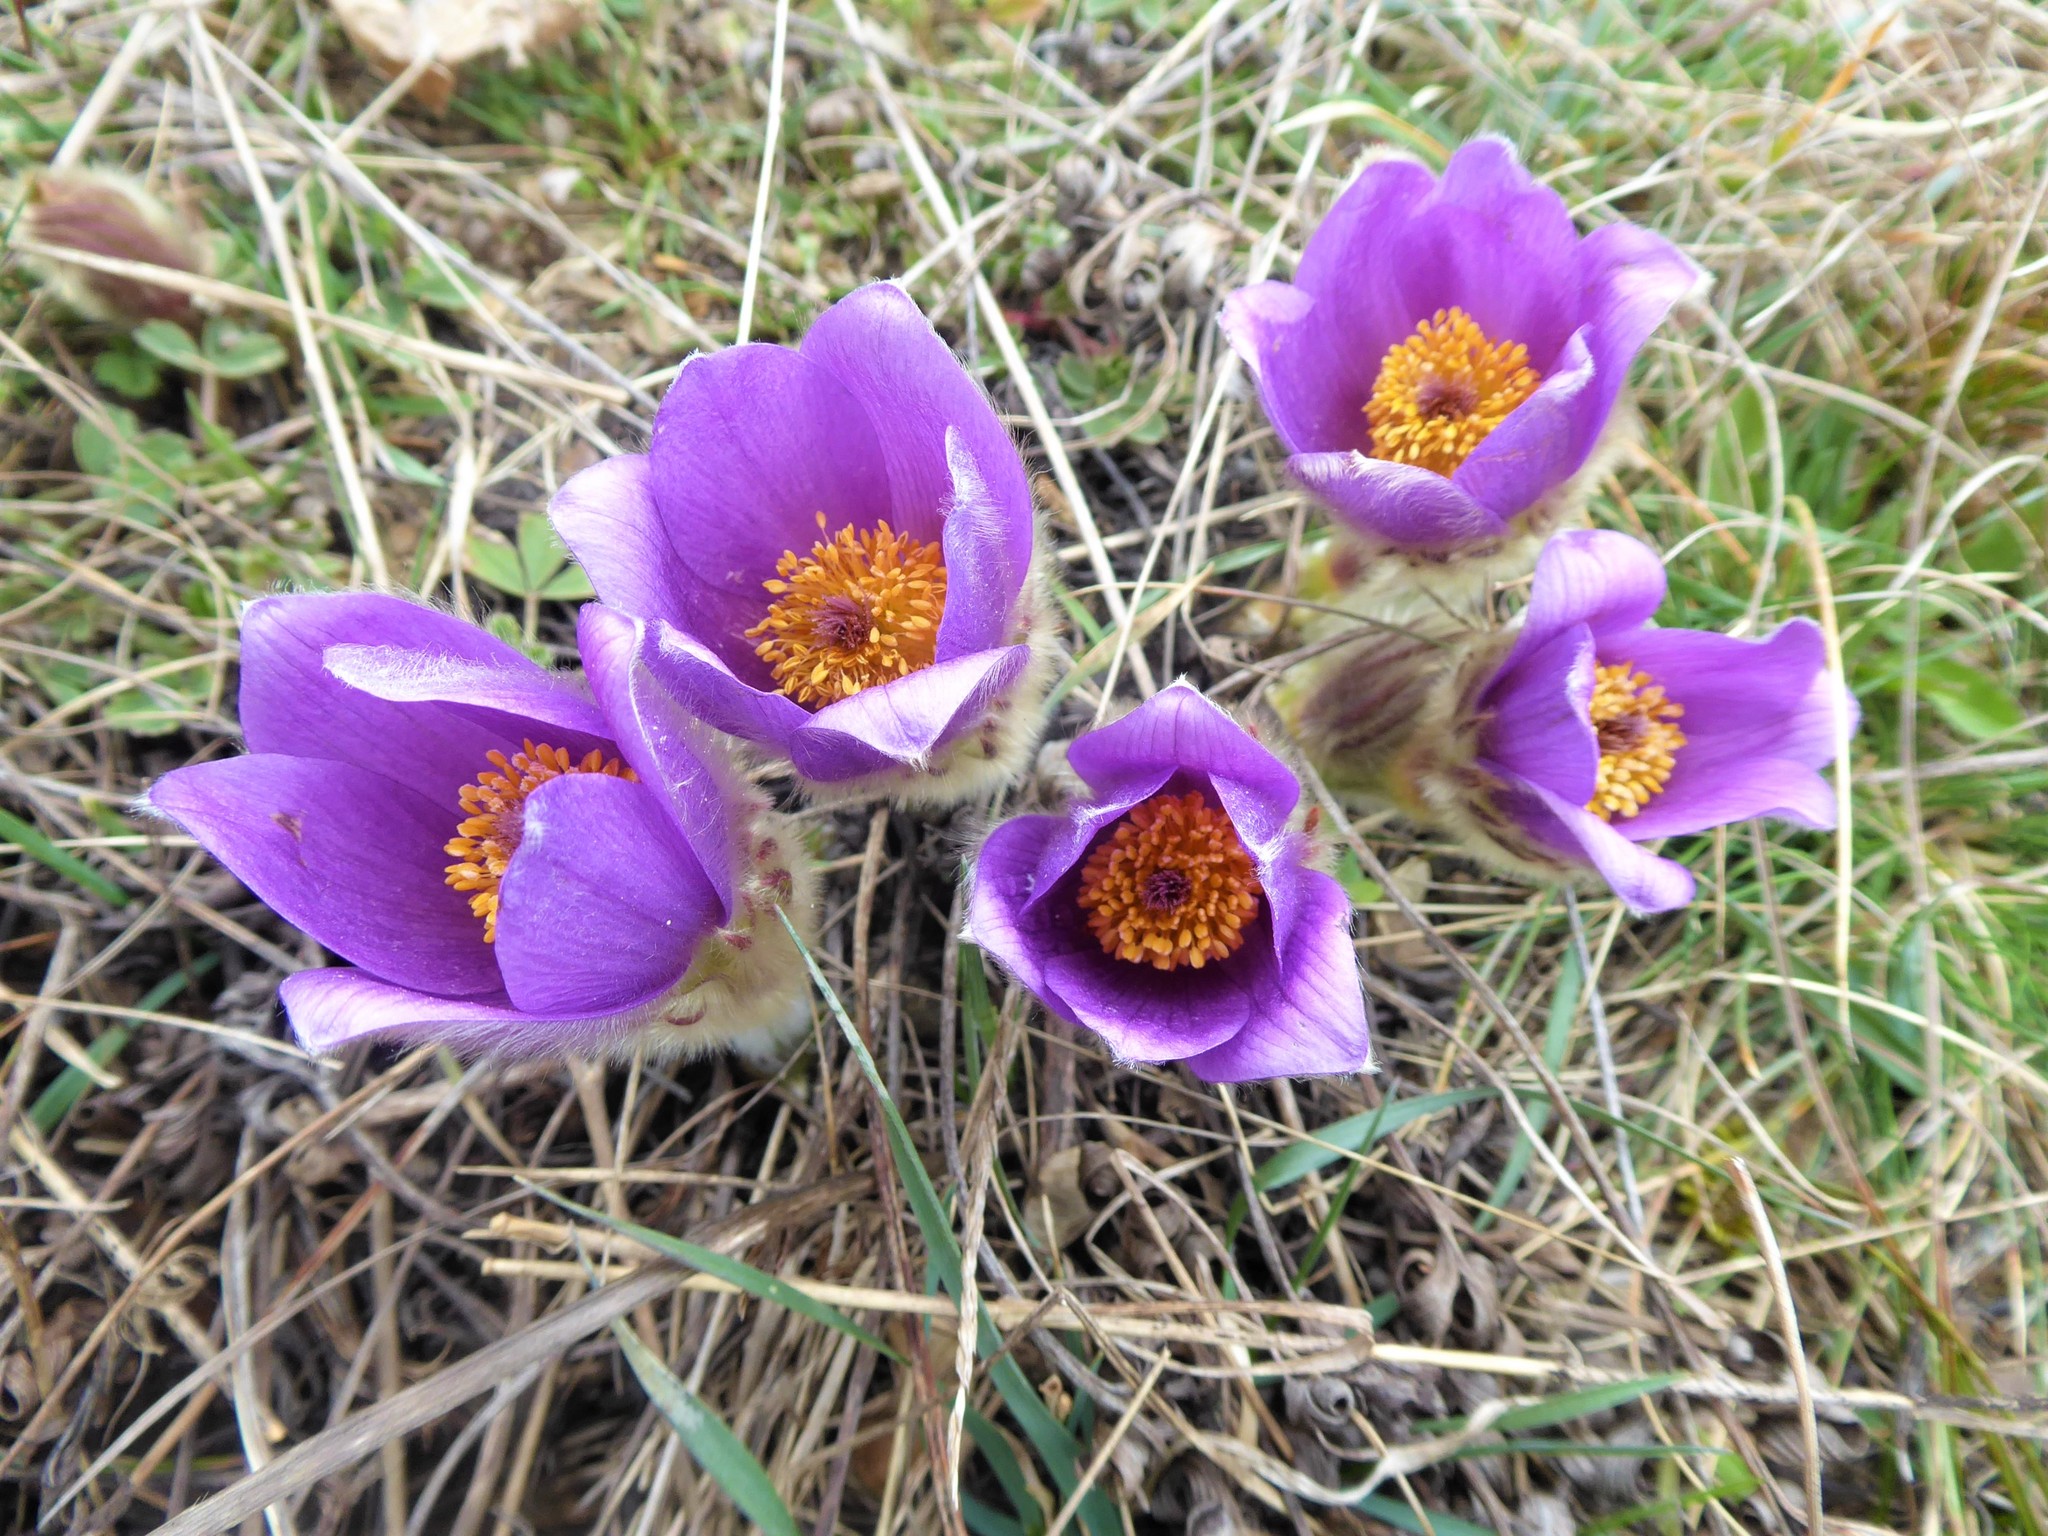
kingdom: Plantae
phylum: Tracheophyta
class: Magnoliopsida
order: Ranunculales
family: Ranunculaceae
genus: Pulsatilla
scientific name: Pulsatilla grandis
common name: Greater pasque flower
